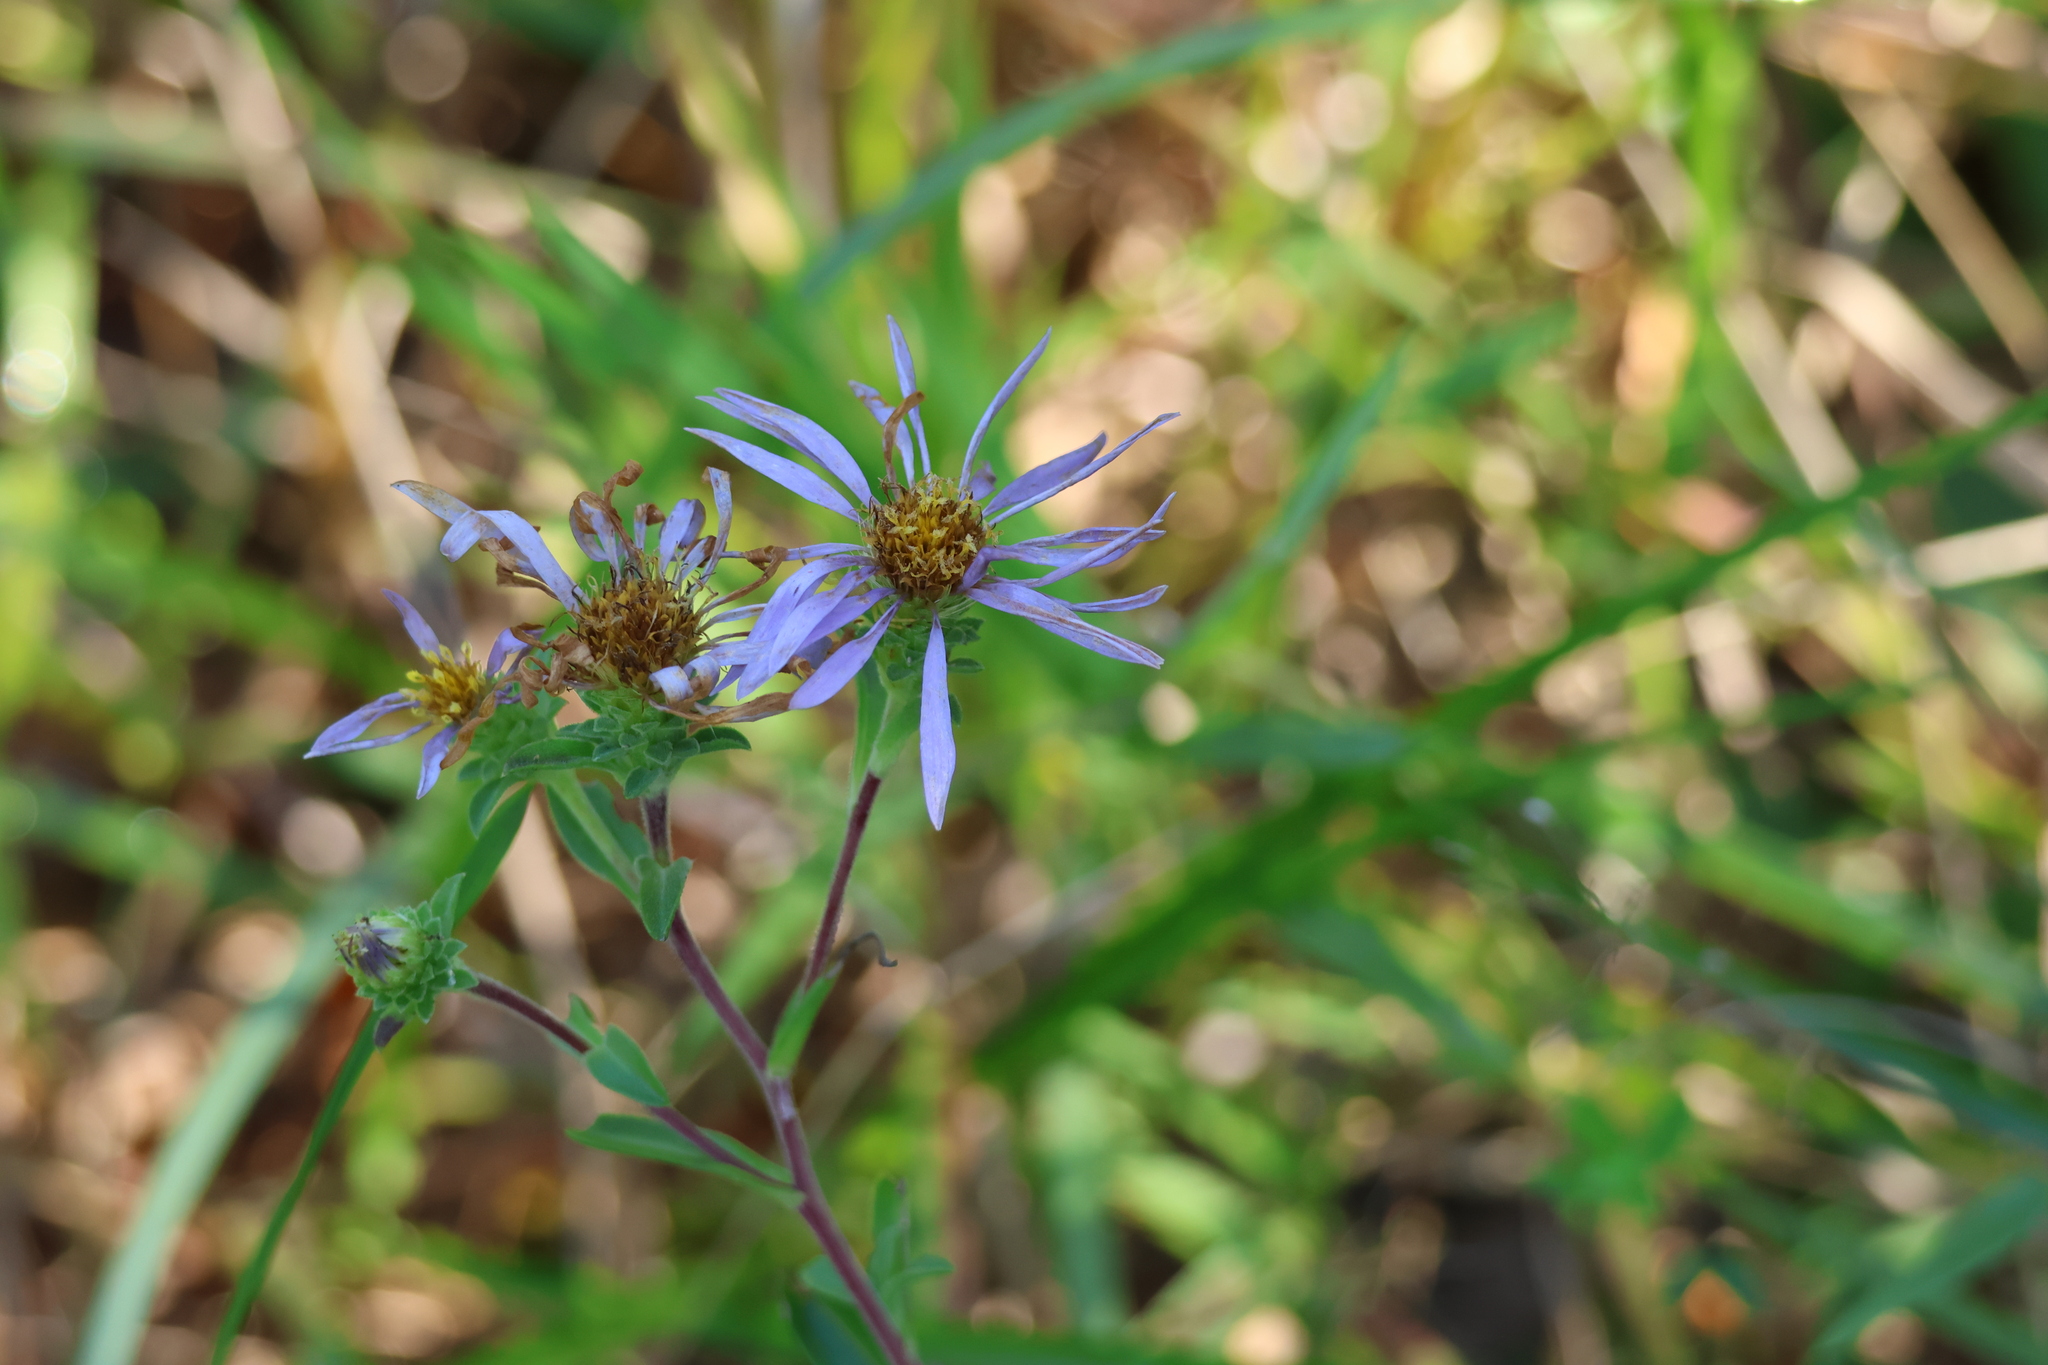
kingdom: Plantae
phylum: Tracheophyta
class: Magnoliopsida
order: Asterales
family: Asteraceae
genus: Eurybia
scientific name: Eurybia spectabilis
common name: Low showy aster
